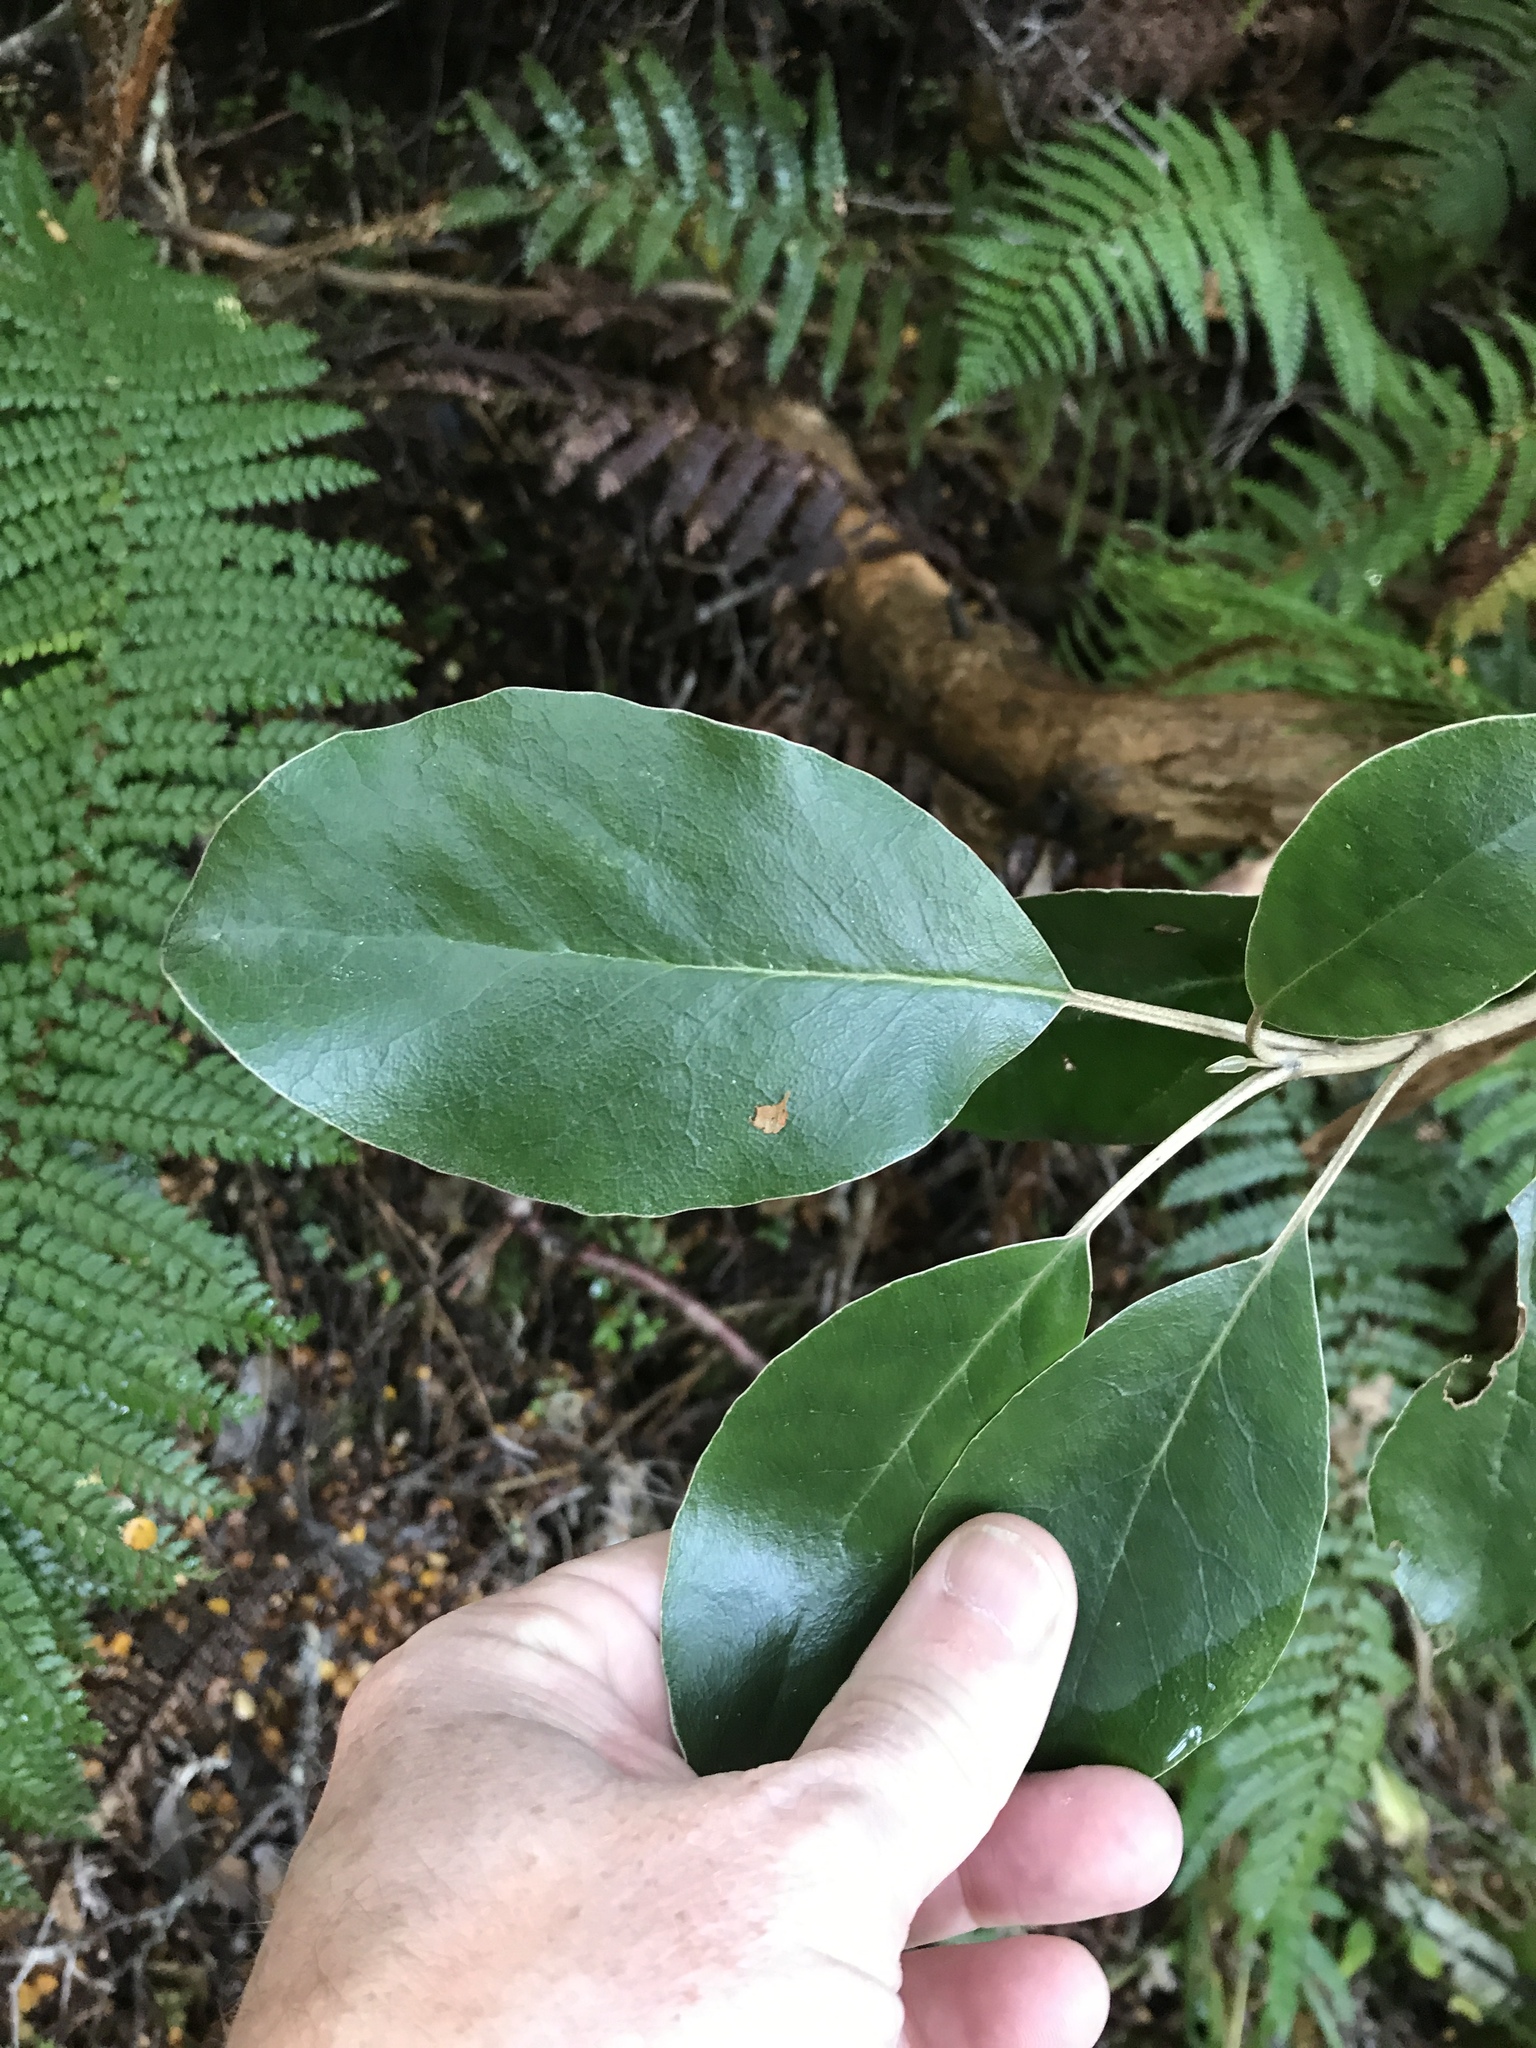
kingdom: Plantae
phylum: Tracheophyta
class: Magnoliopsida
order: Asterales
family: Asteraceae
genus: Brachyglottis
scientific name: Brachyglottis buchananii
